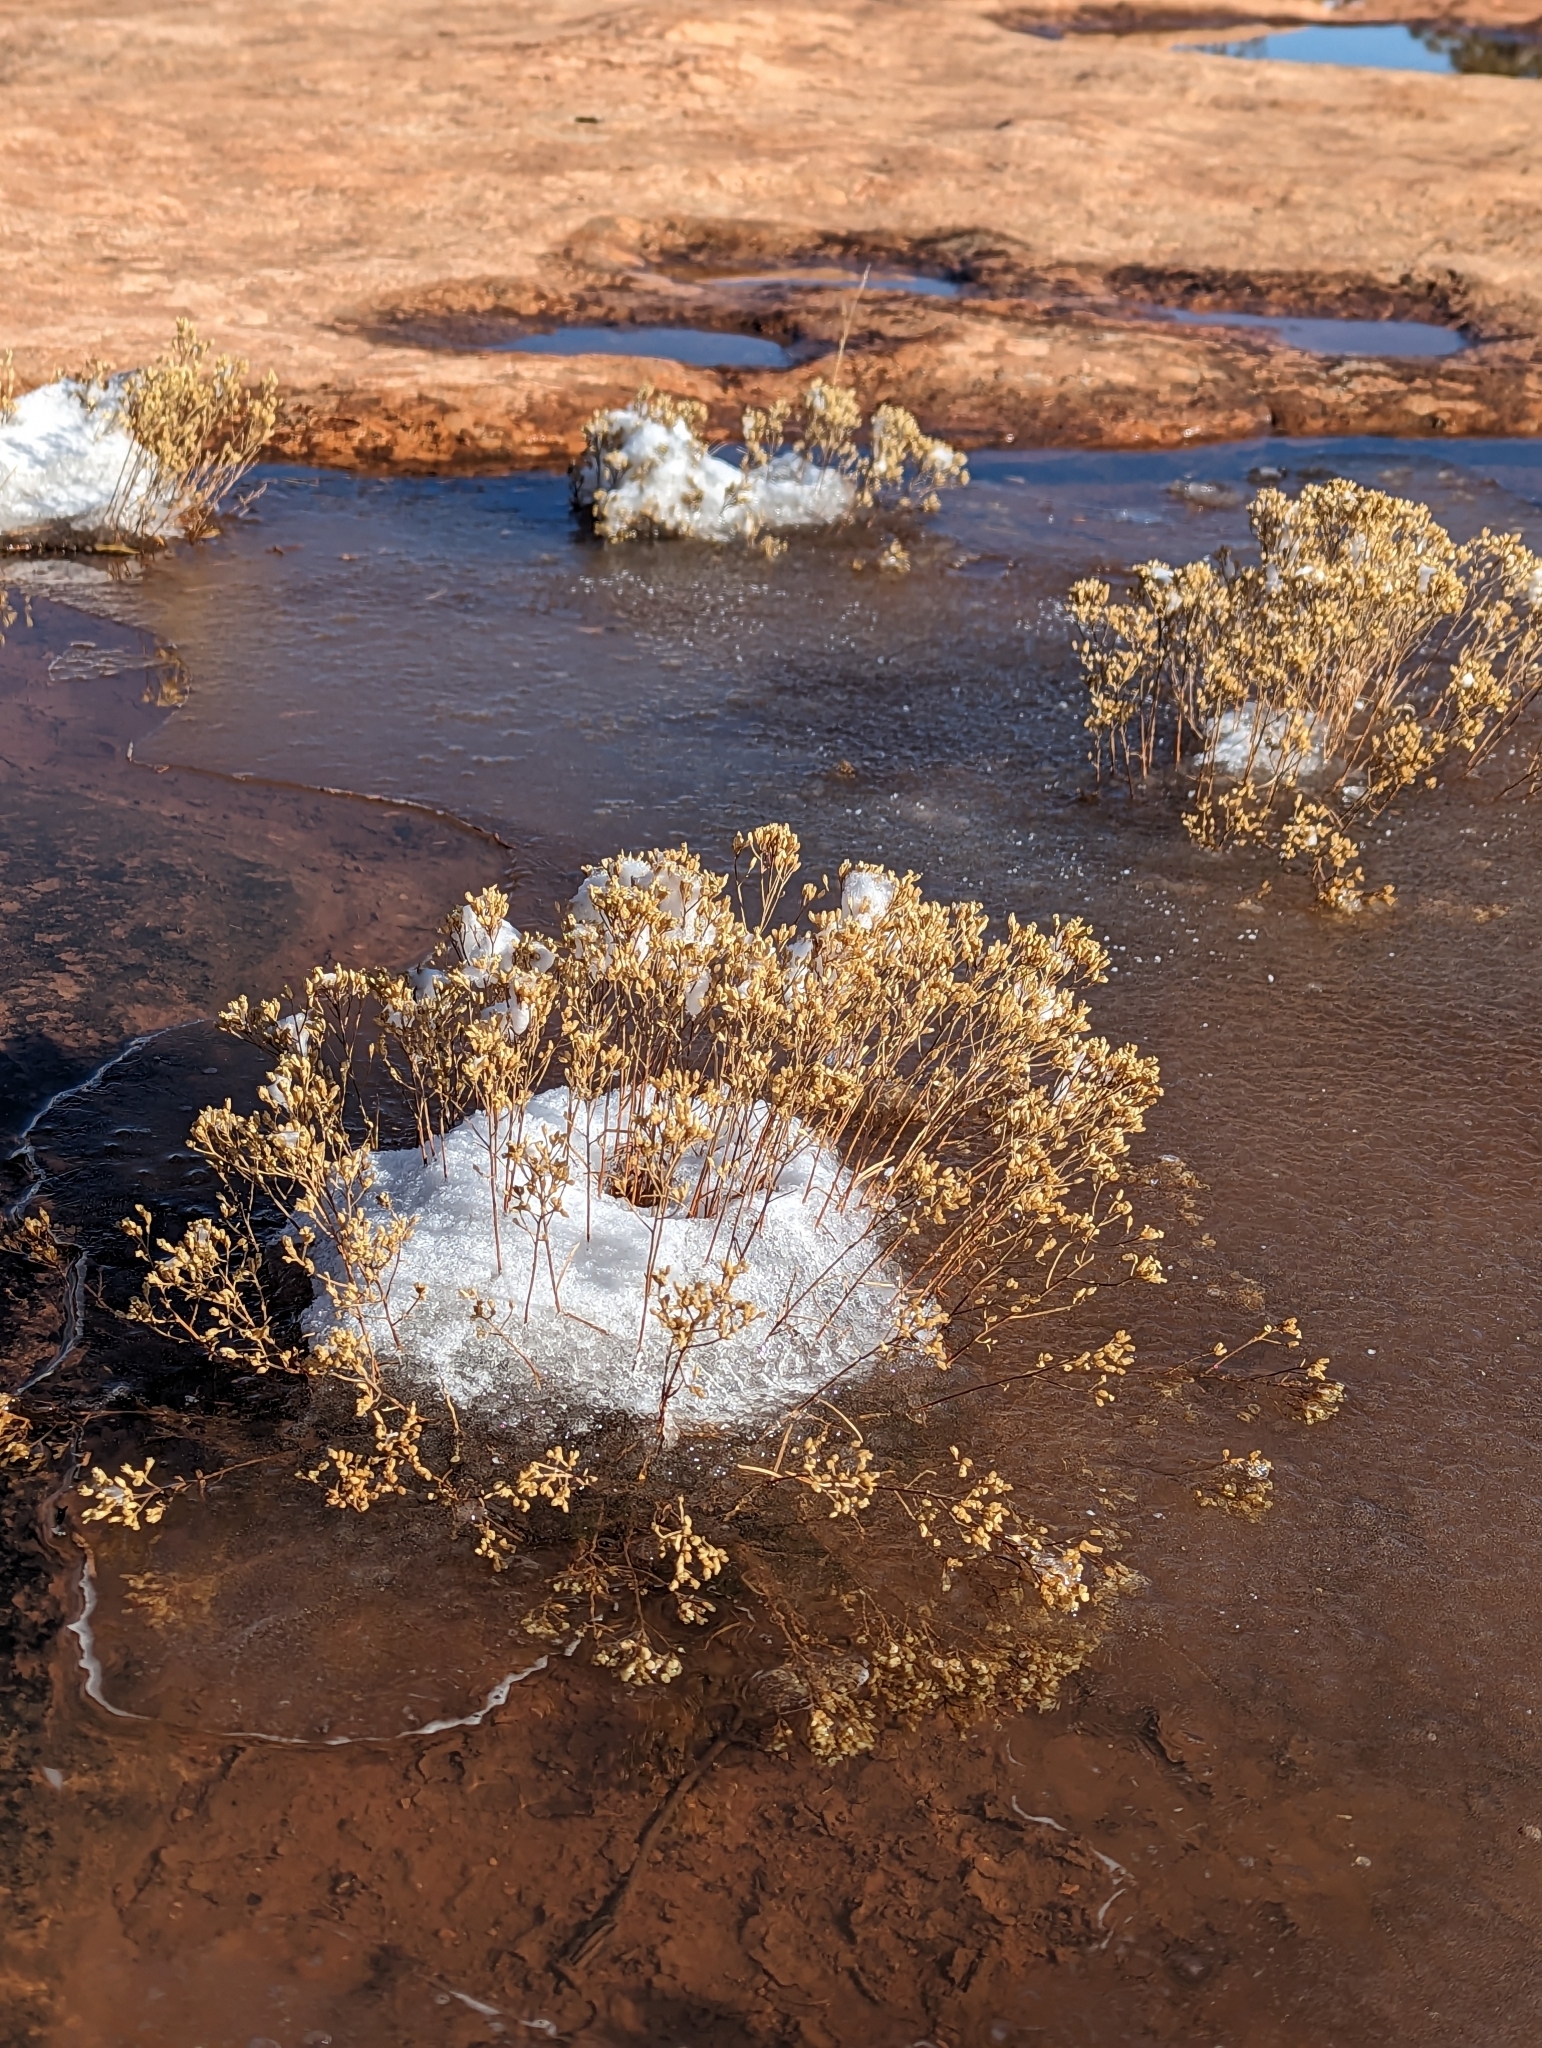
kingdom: Plantae
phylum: Tracheophyta
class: Magnoliopsida
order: Asterales
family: Asteraceae
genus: Gutierrezia
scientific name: Gutierrezia sarothrae
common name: Broom snakeweed
